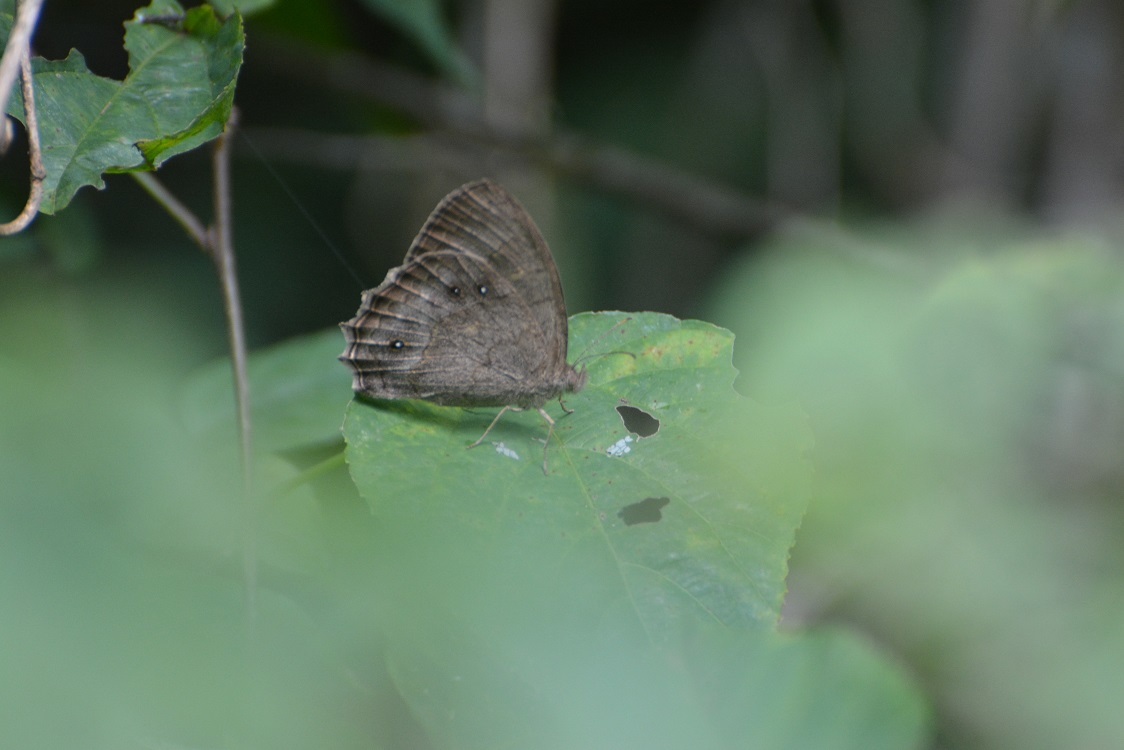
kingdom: Animalia
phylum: Arthropoda
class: Insecta
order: Lepidoptera
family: Nymphalidae
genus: Taygetina
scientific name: Taygetina kerea
